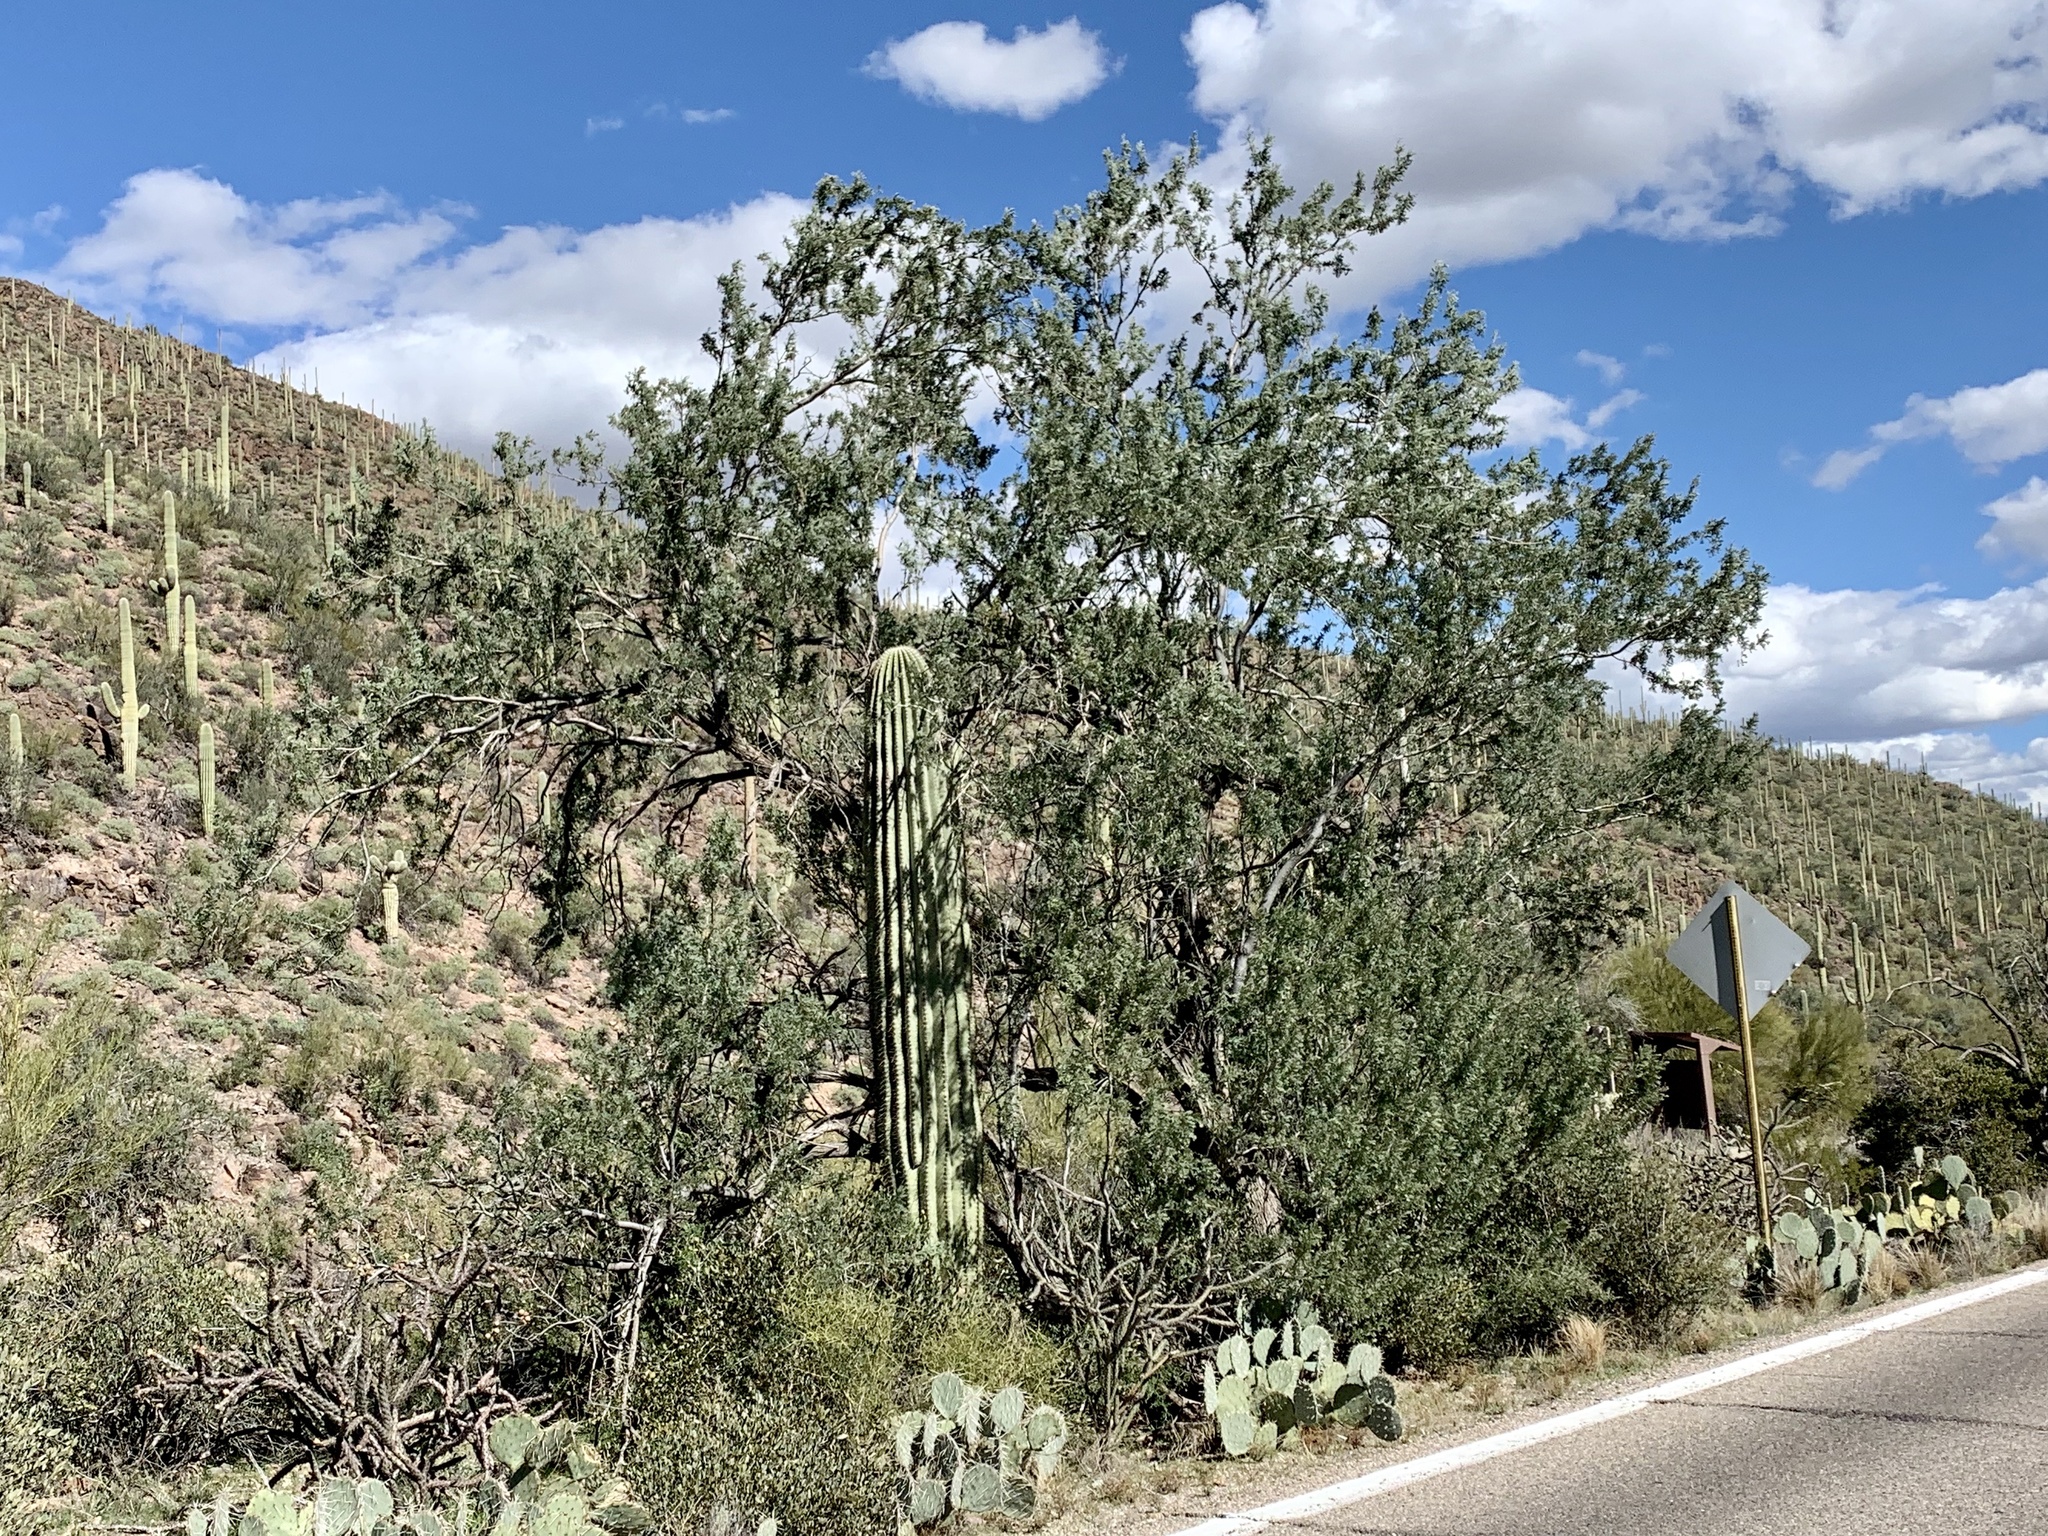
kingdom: Plantae
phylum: Tracheophyta
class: Magnoliopsida
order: Fabales
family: Fabaceae
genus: Olneya
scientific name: Olneya tesota
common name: Desert ironwood
